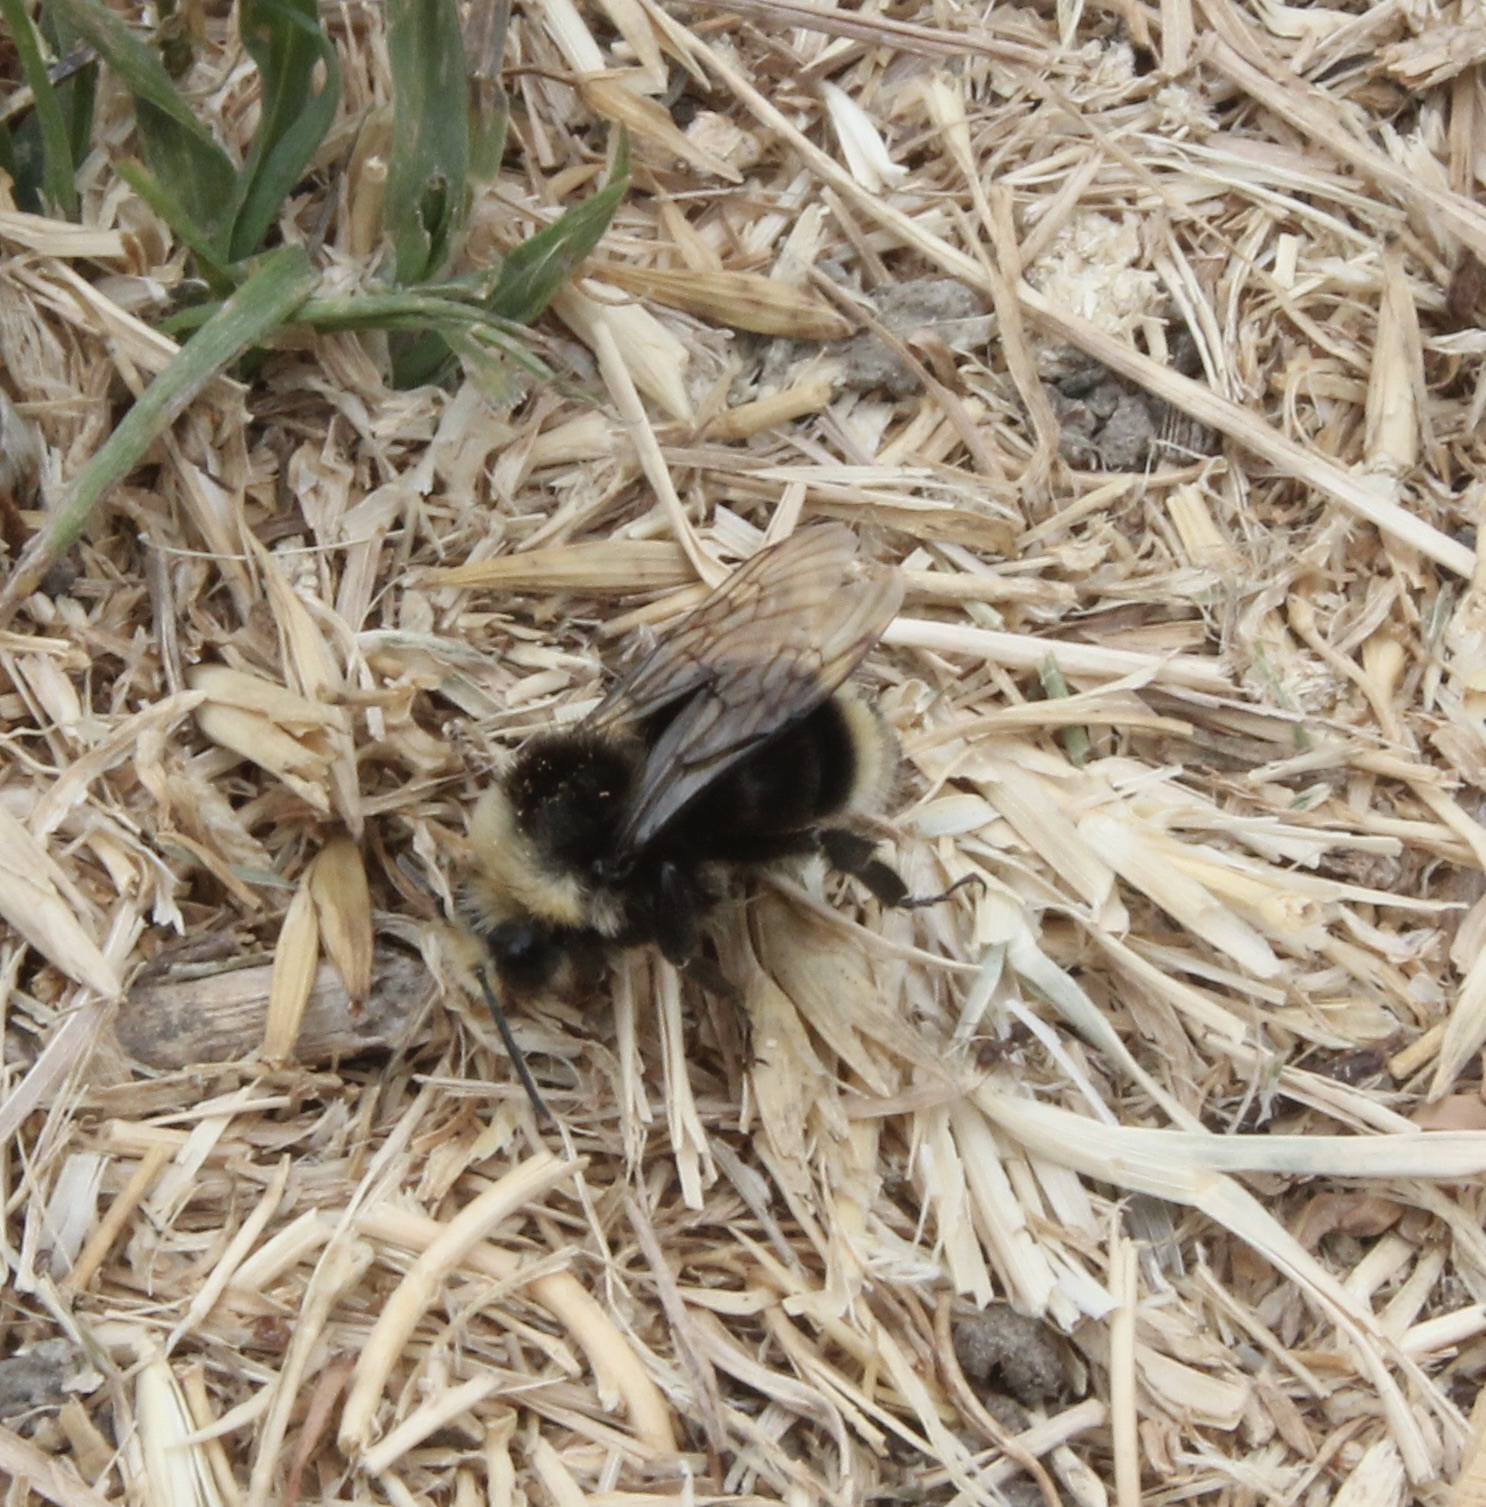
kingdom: Animalia
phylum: Arthropoda
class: Insecta
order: Hymenoptera
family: Apidae
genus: Bombus
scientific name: Bombus vosnesenskii
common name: Vosnesensky bumble bee
